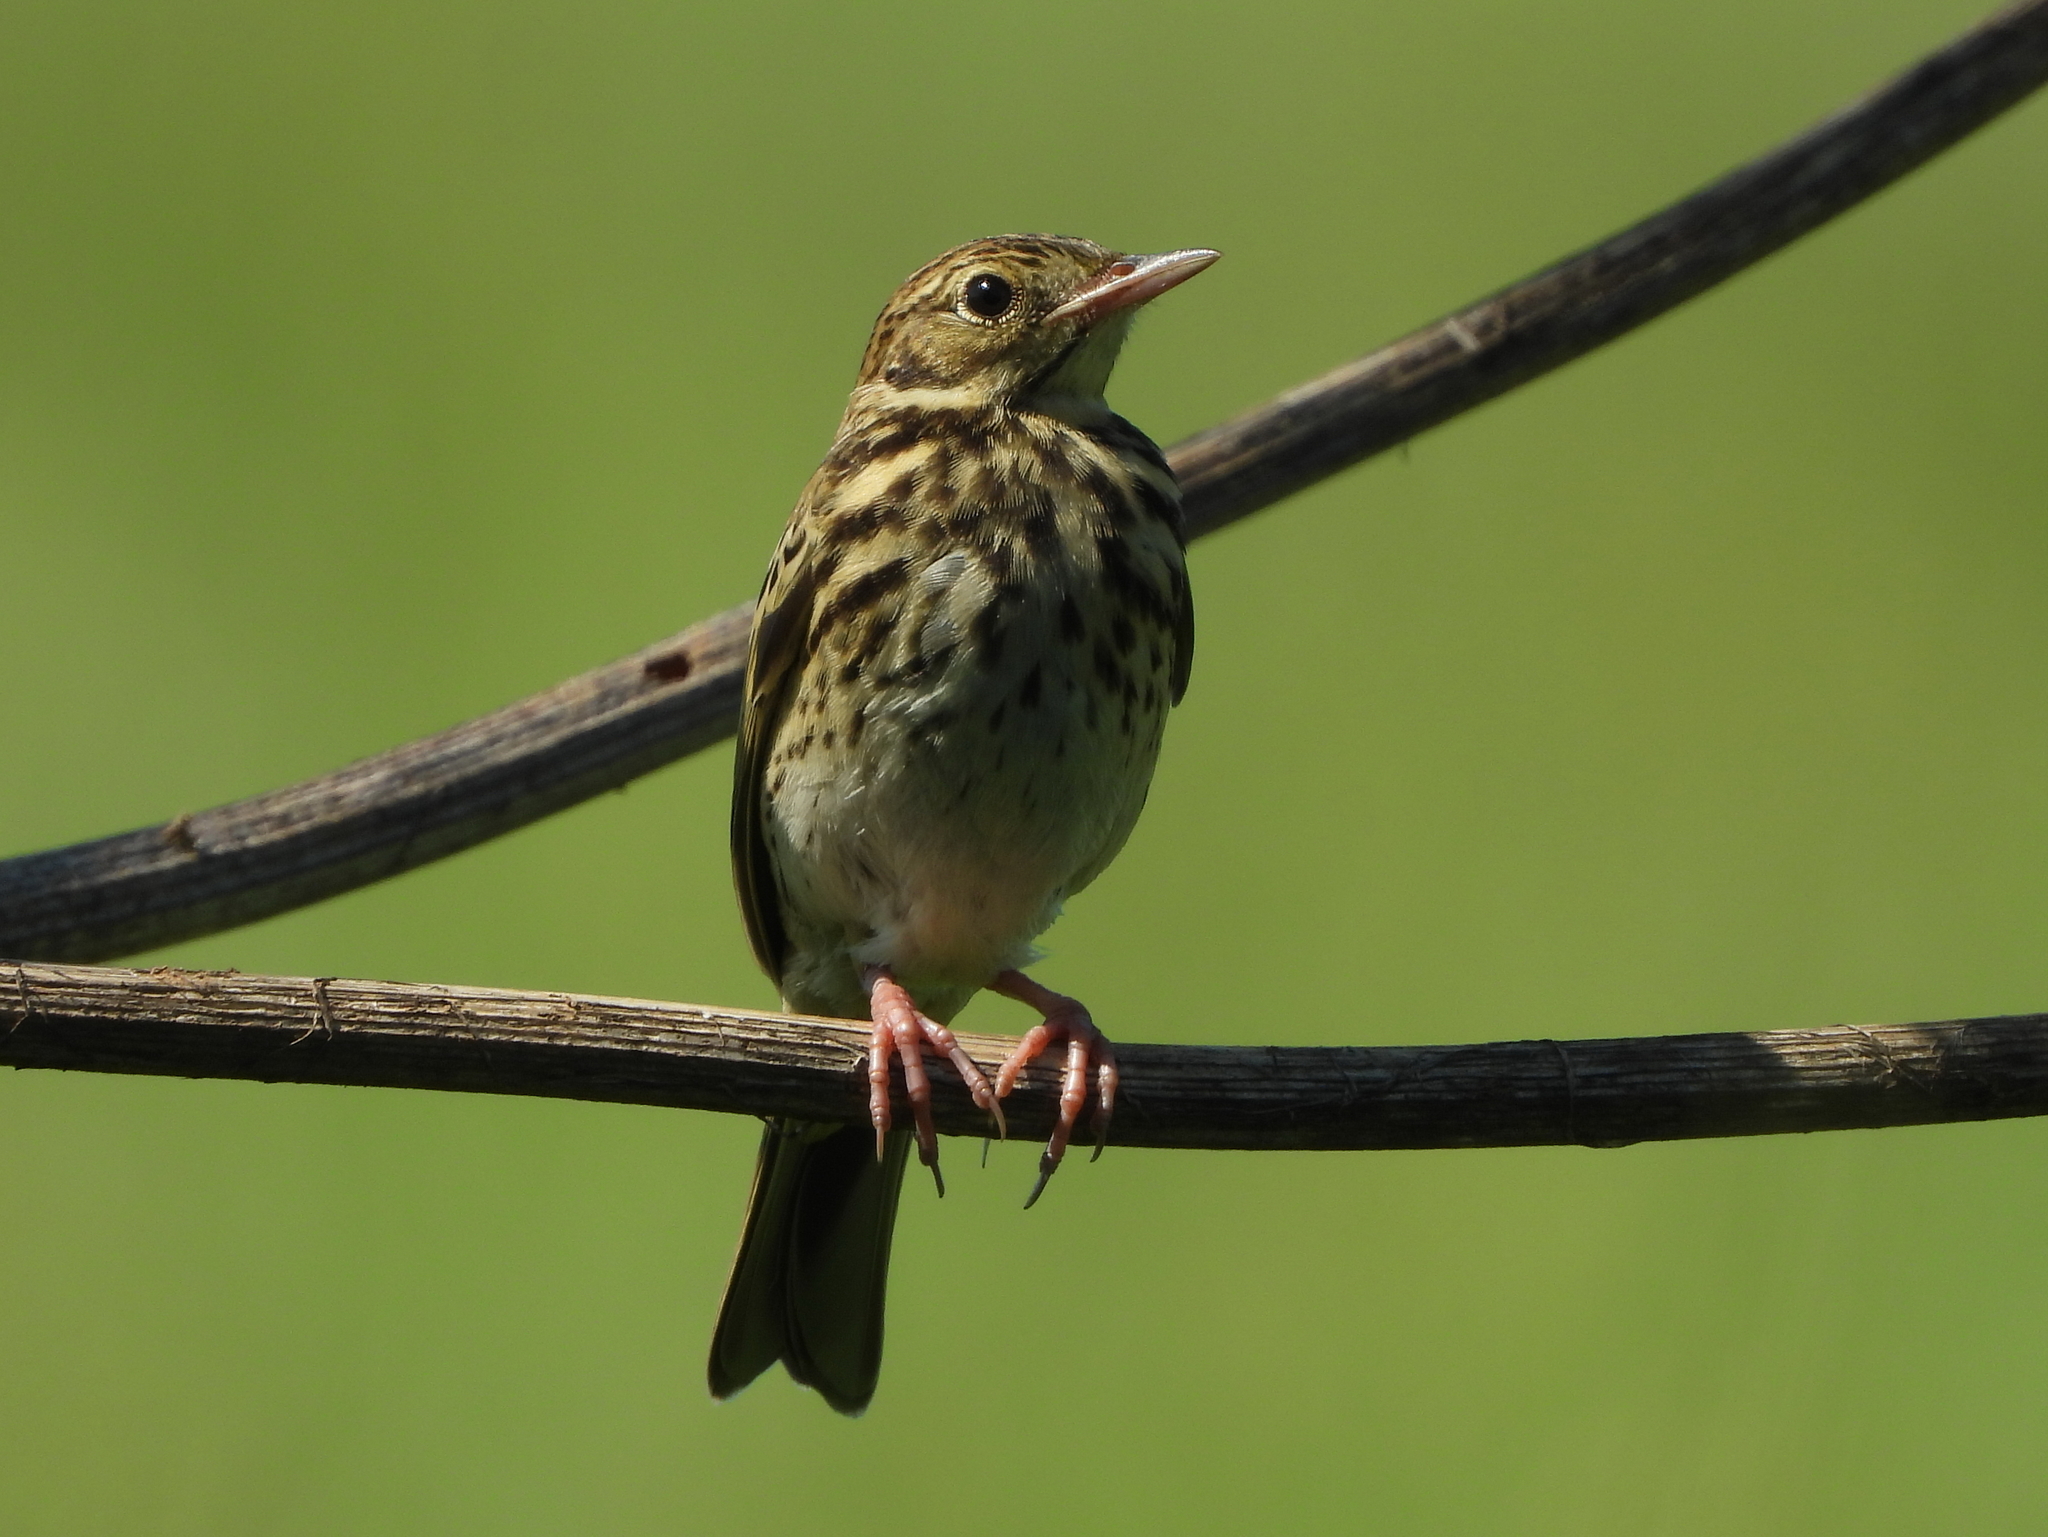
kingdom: Animalia
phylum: Chordata
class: Aves
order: Passeriformes
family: Motacillidae
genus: Anthus
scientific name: Anthus trivialis
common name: Tree pipit
